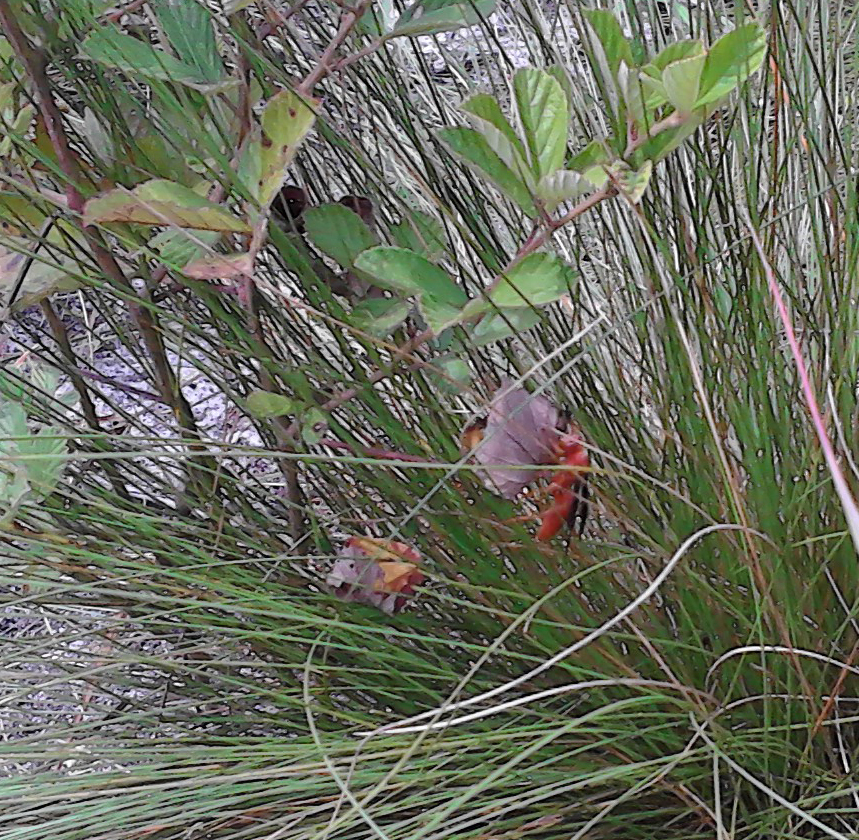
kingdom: Animalia
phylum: Arthropoda
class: Insecta
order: Hymenoptera
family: Vespidae
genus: Fuscopolistes
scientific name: Fuscopolistes
